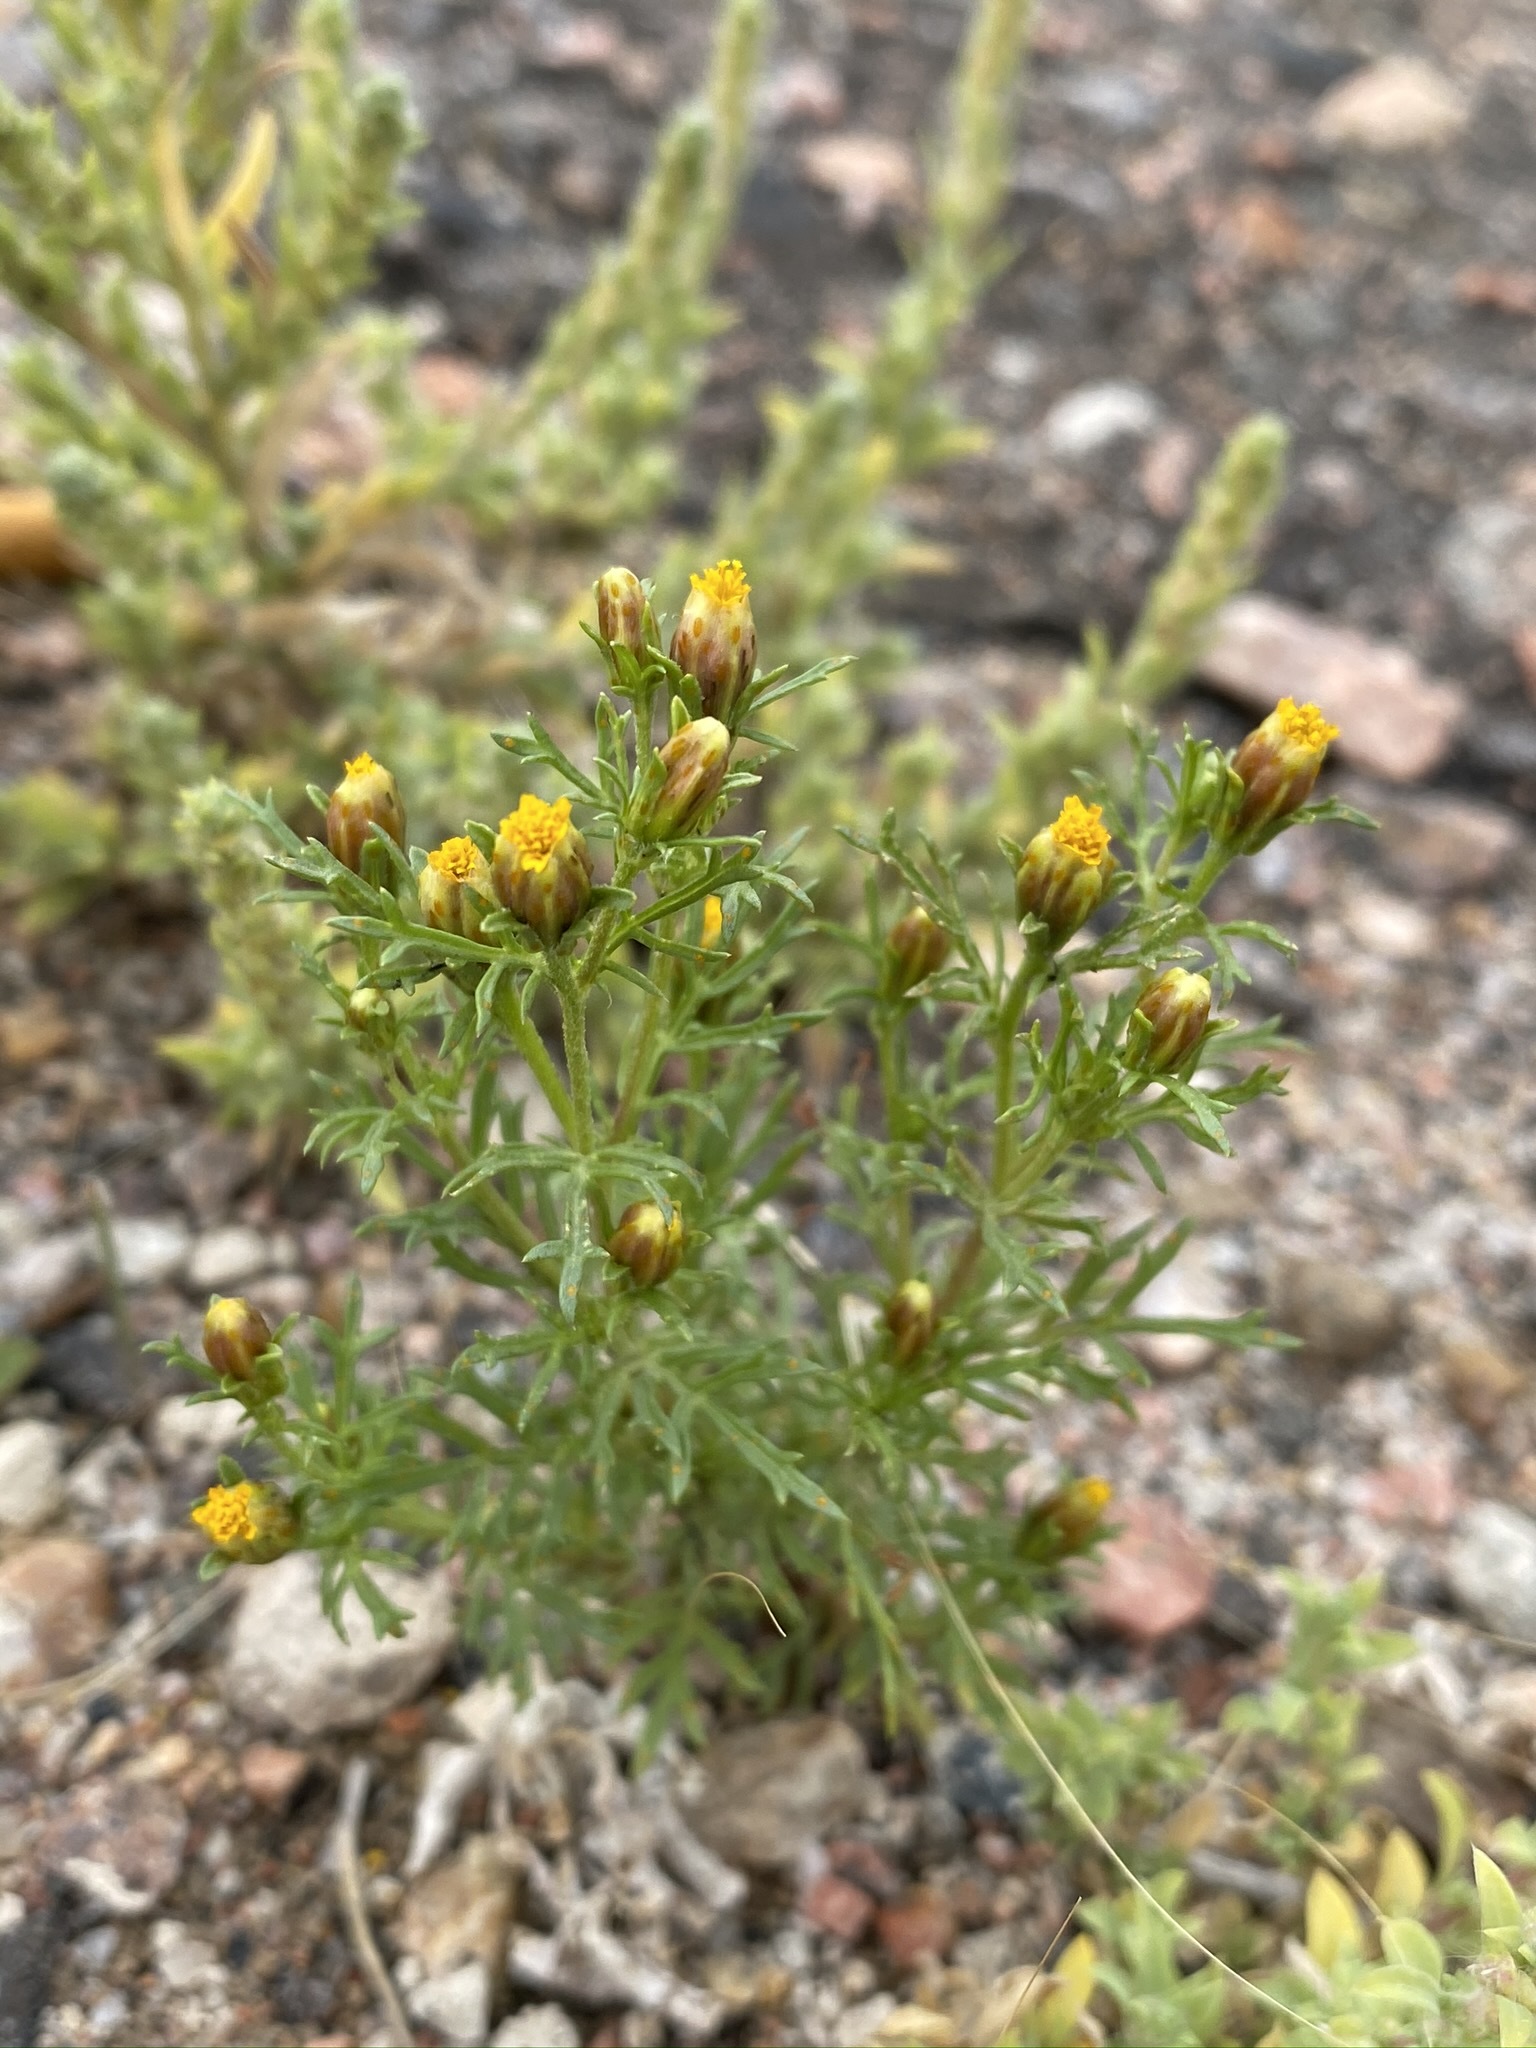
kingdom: Plantae
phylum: Tracheophyta
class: Magnoliopsida
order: Asterales
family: Asteraceae
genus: Dyssodia
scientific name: Dyssodia papposa
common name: Dogweed
